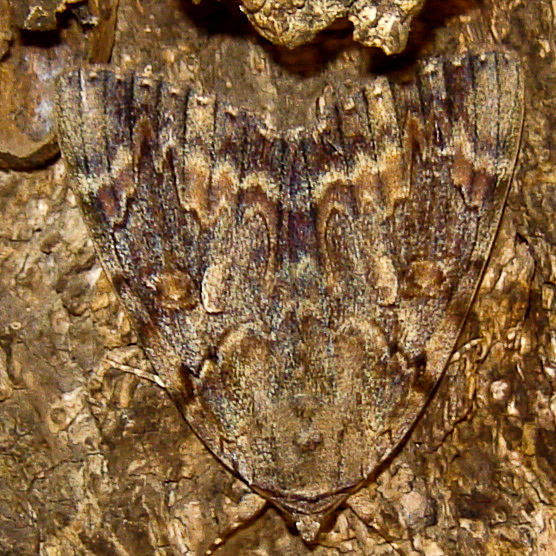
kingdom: Animalia
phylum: Arthropoda
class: Insecta
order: Lepidoptera
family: Erebidae
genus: Catocala
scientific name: Catocala agrippina
